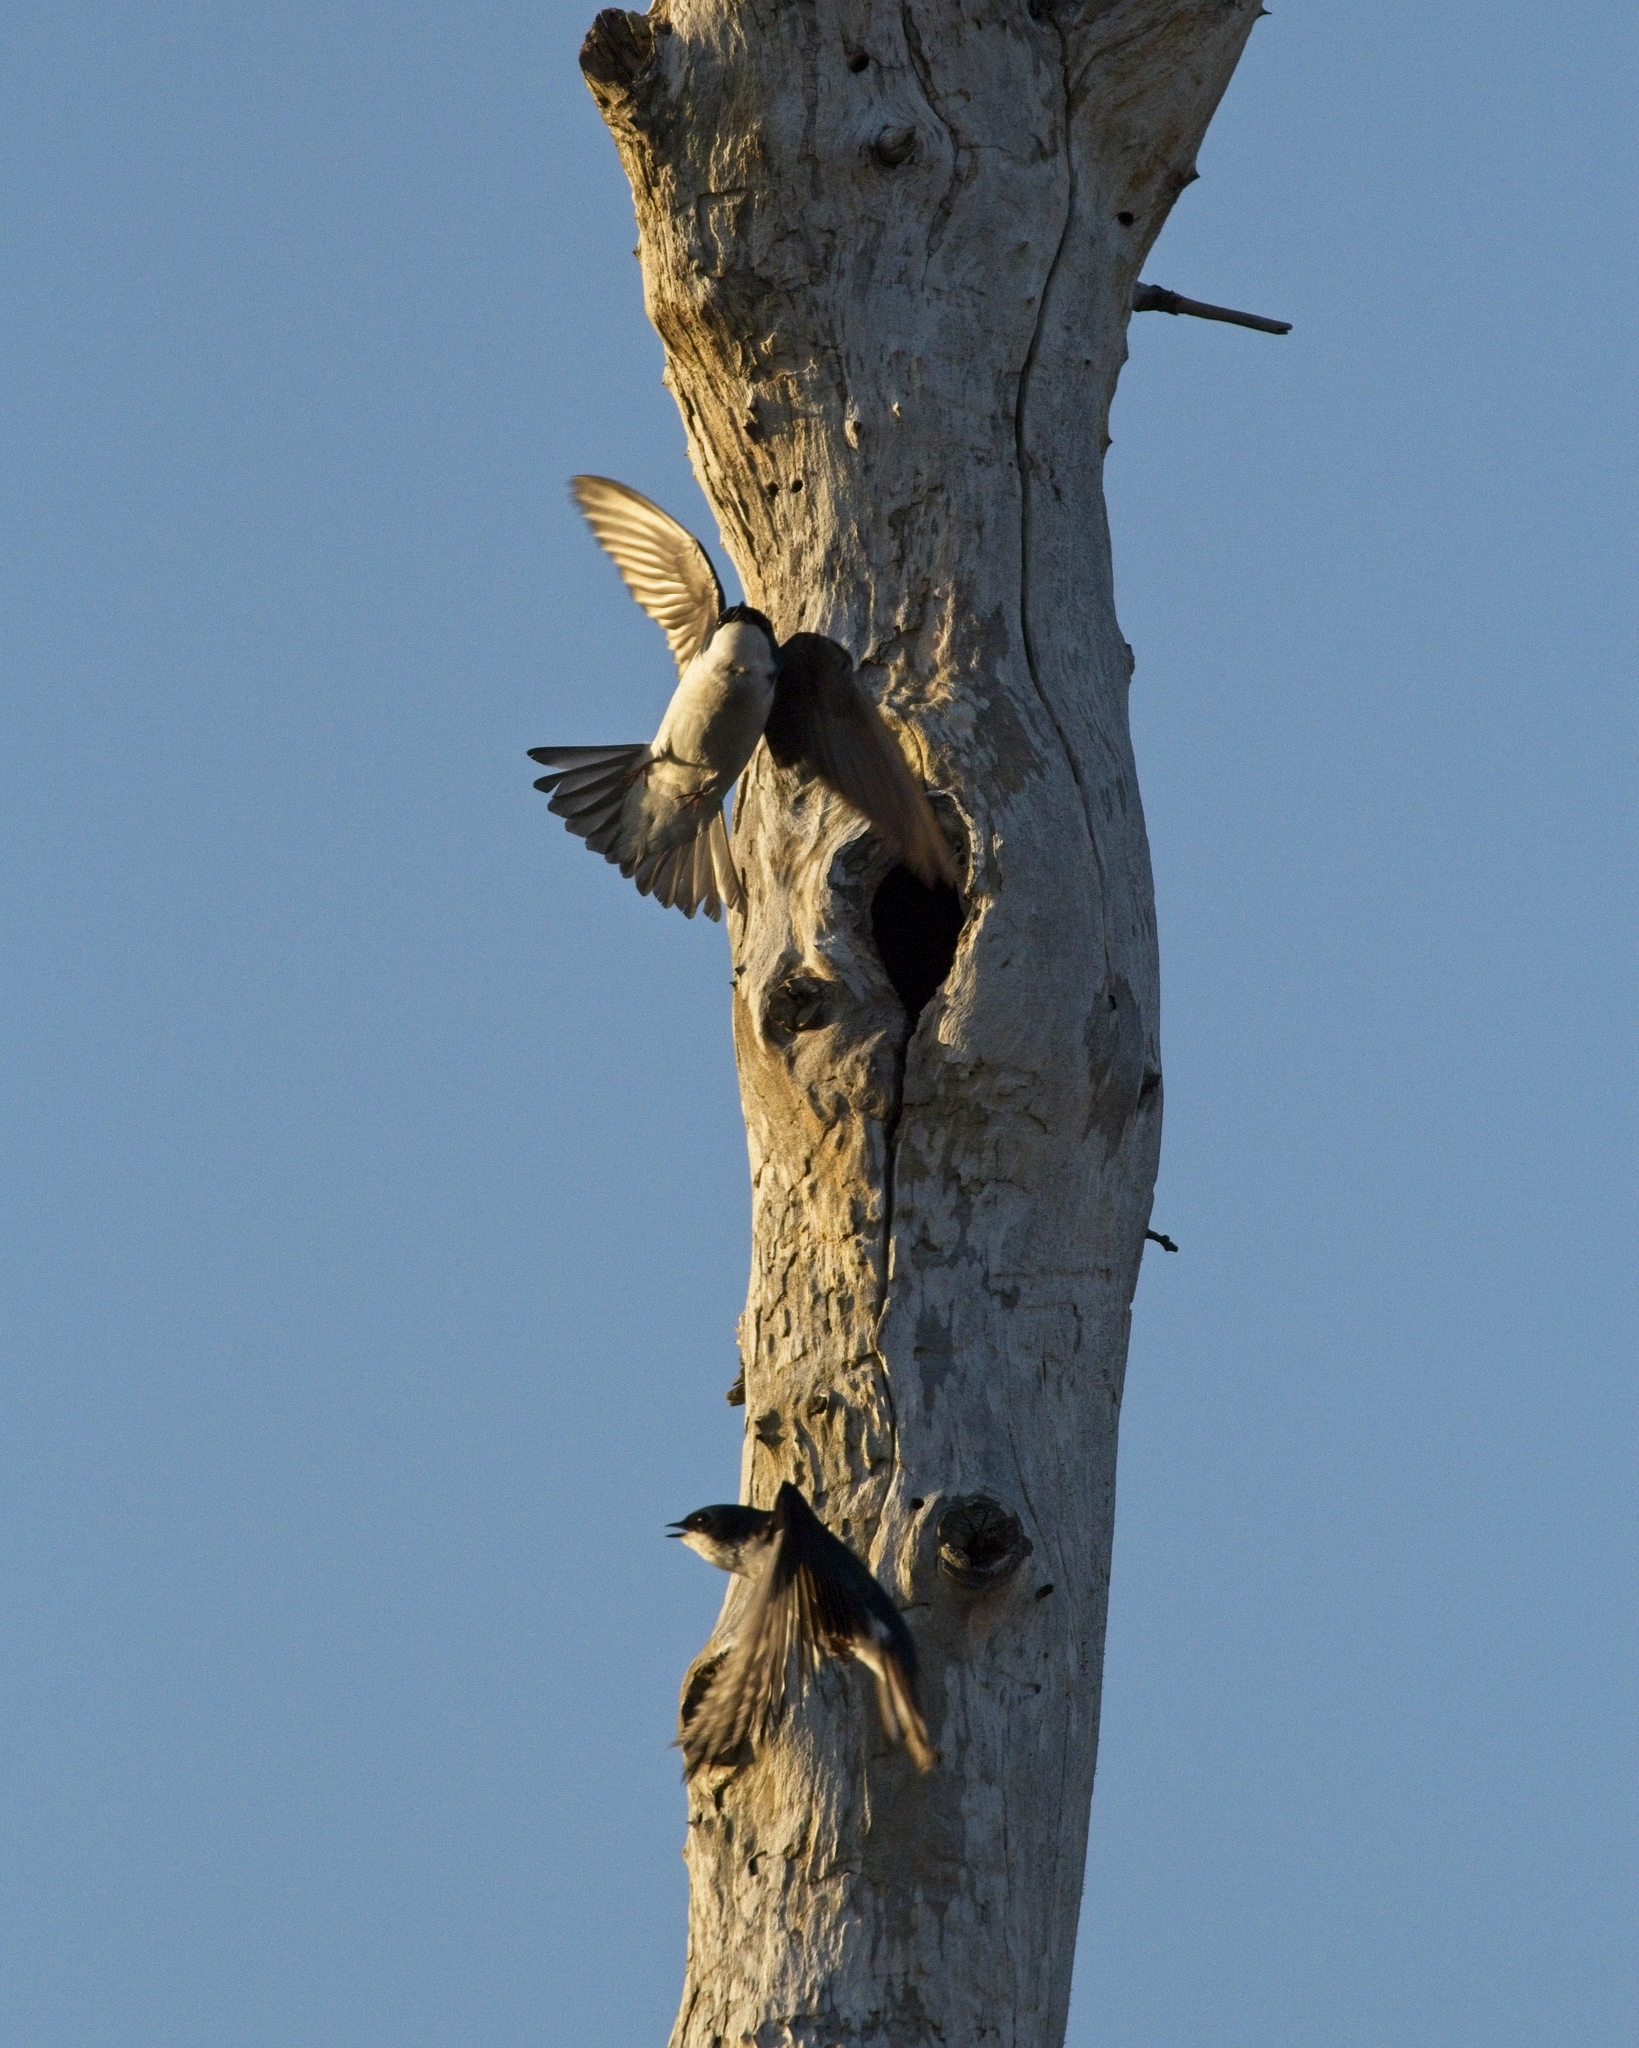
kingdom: Animalia
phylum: Chordata
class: Aves
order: Passeriformes
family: Hirundinidae
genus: Tachycineta
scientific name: Tachycineta bicolor
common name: Tree swallow
